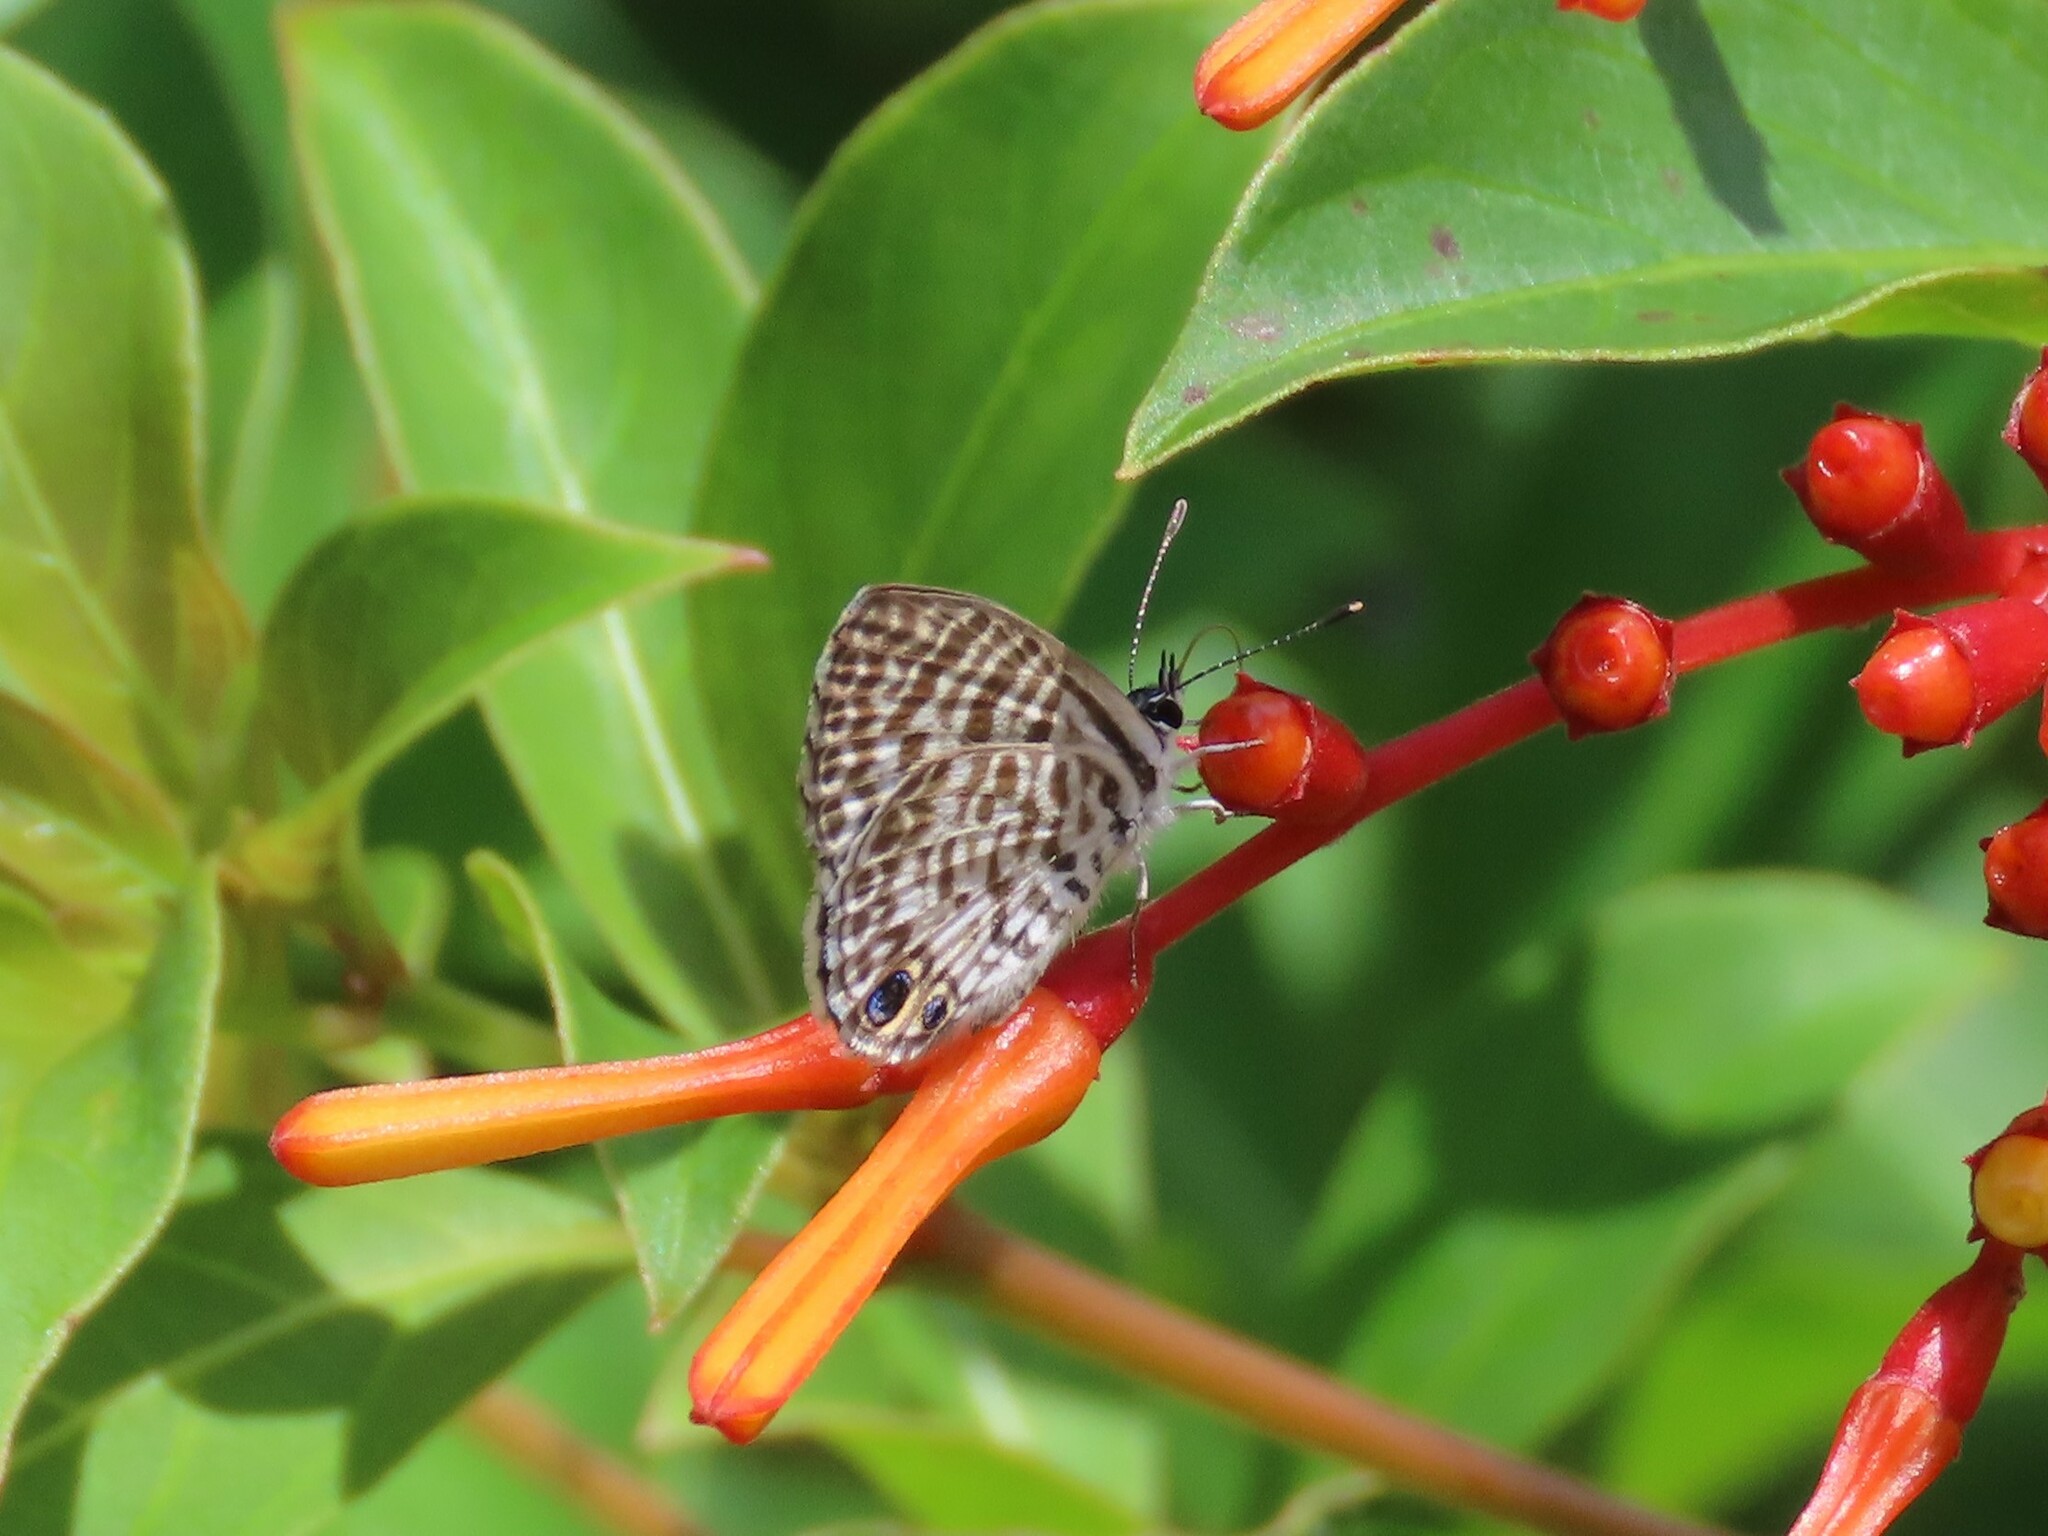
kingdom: Animalia
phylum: Arthropoda
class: Insecta
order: Lepidoptera
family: Lycaenidae
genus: Leptotes
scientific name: Leptotes cassius
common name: Cassius blue
